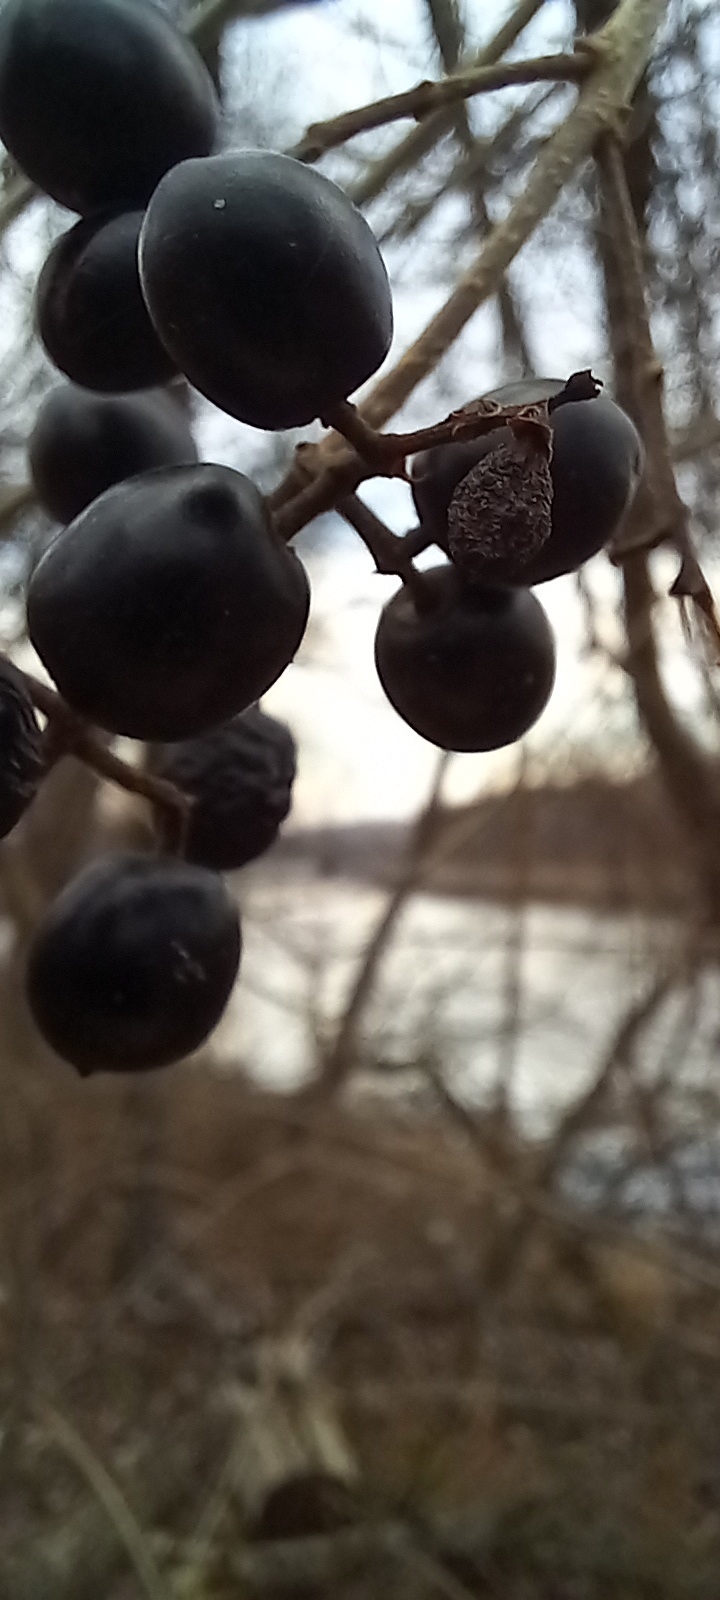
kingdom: Plantae
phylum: Tracheophyta
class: Magnoliopsida
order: Lamiales
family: Oleaceae
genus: Ligustrum
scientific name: Ligustrum vulgare
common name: Wild privet
